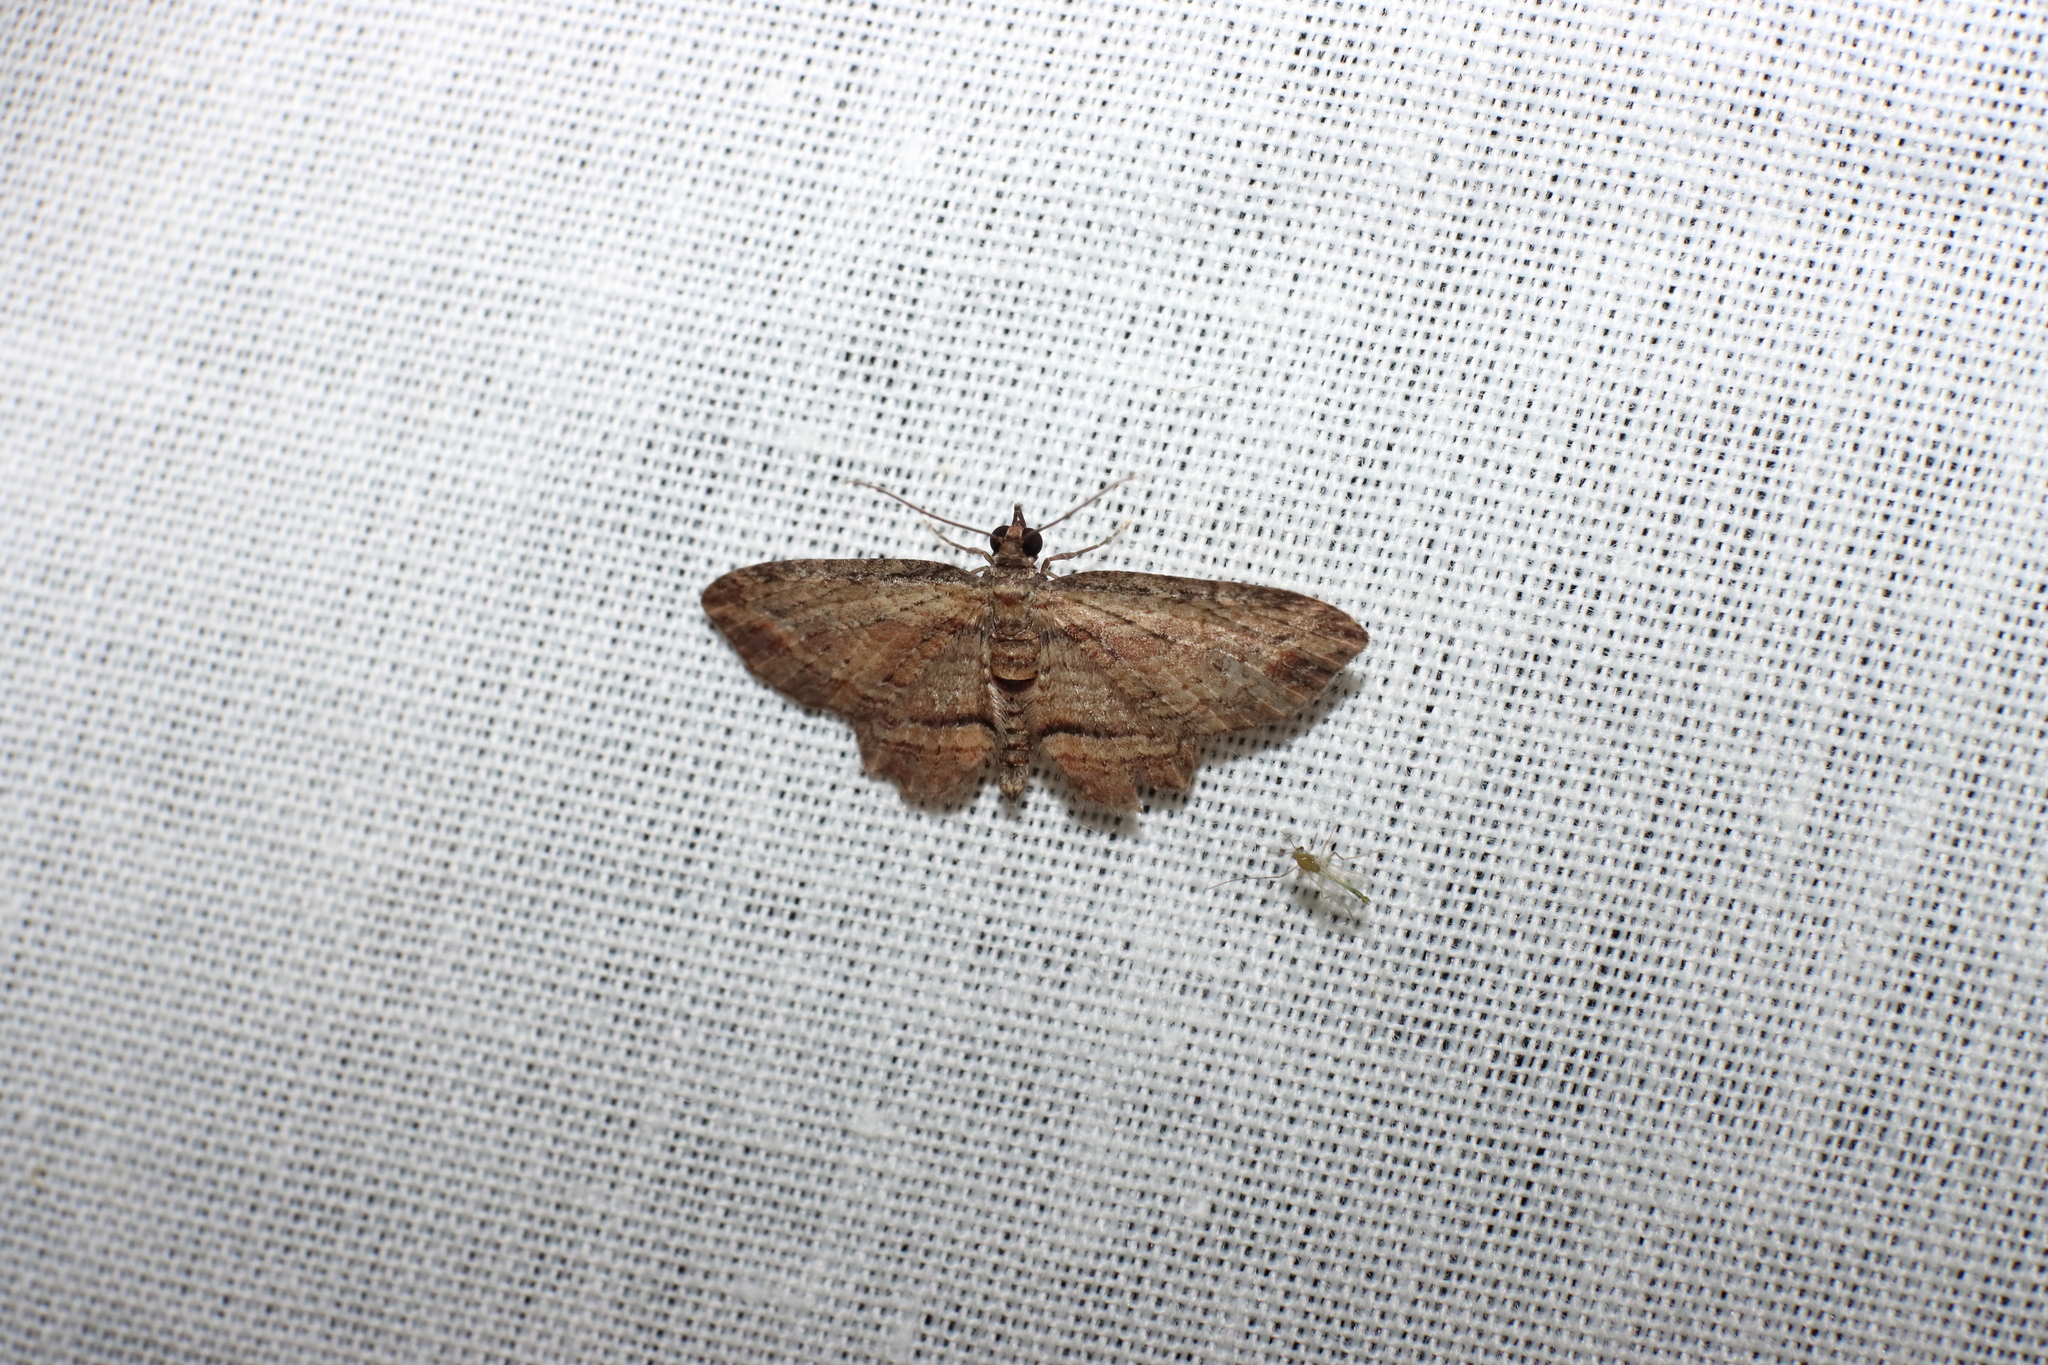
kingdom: Animalia
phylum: Arthropoda
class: Insecta
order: Lepidoptera
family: Geometridae
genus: Chloroclystis
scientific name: Chloroclystis filata
